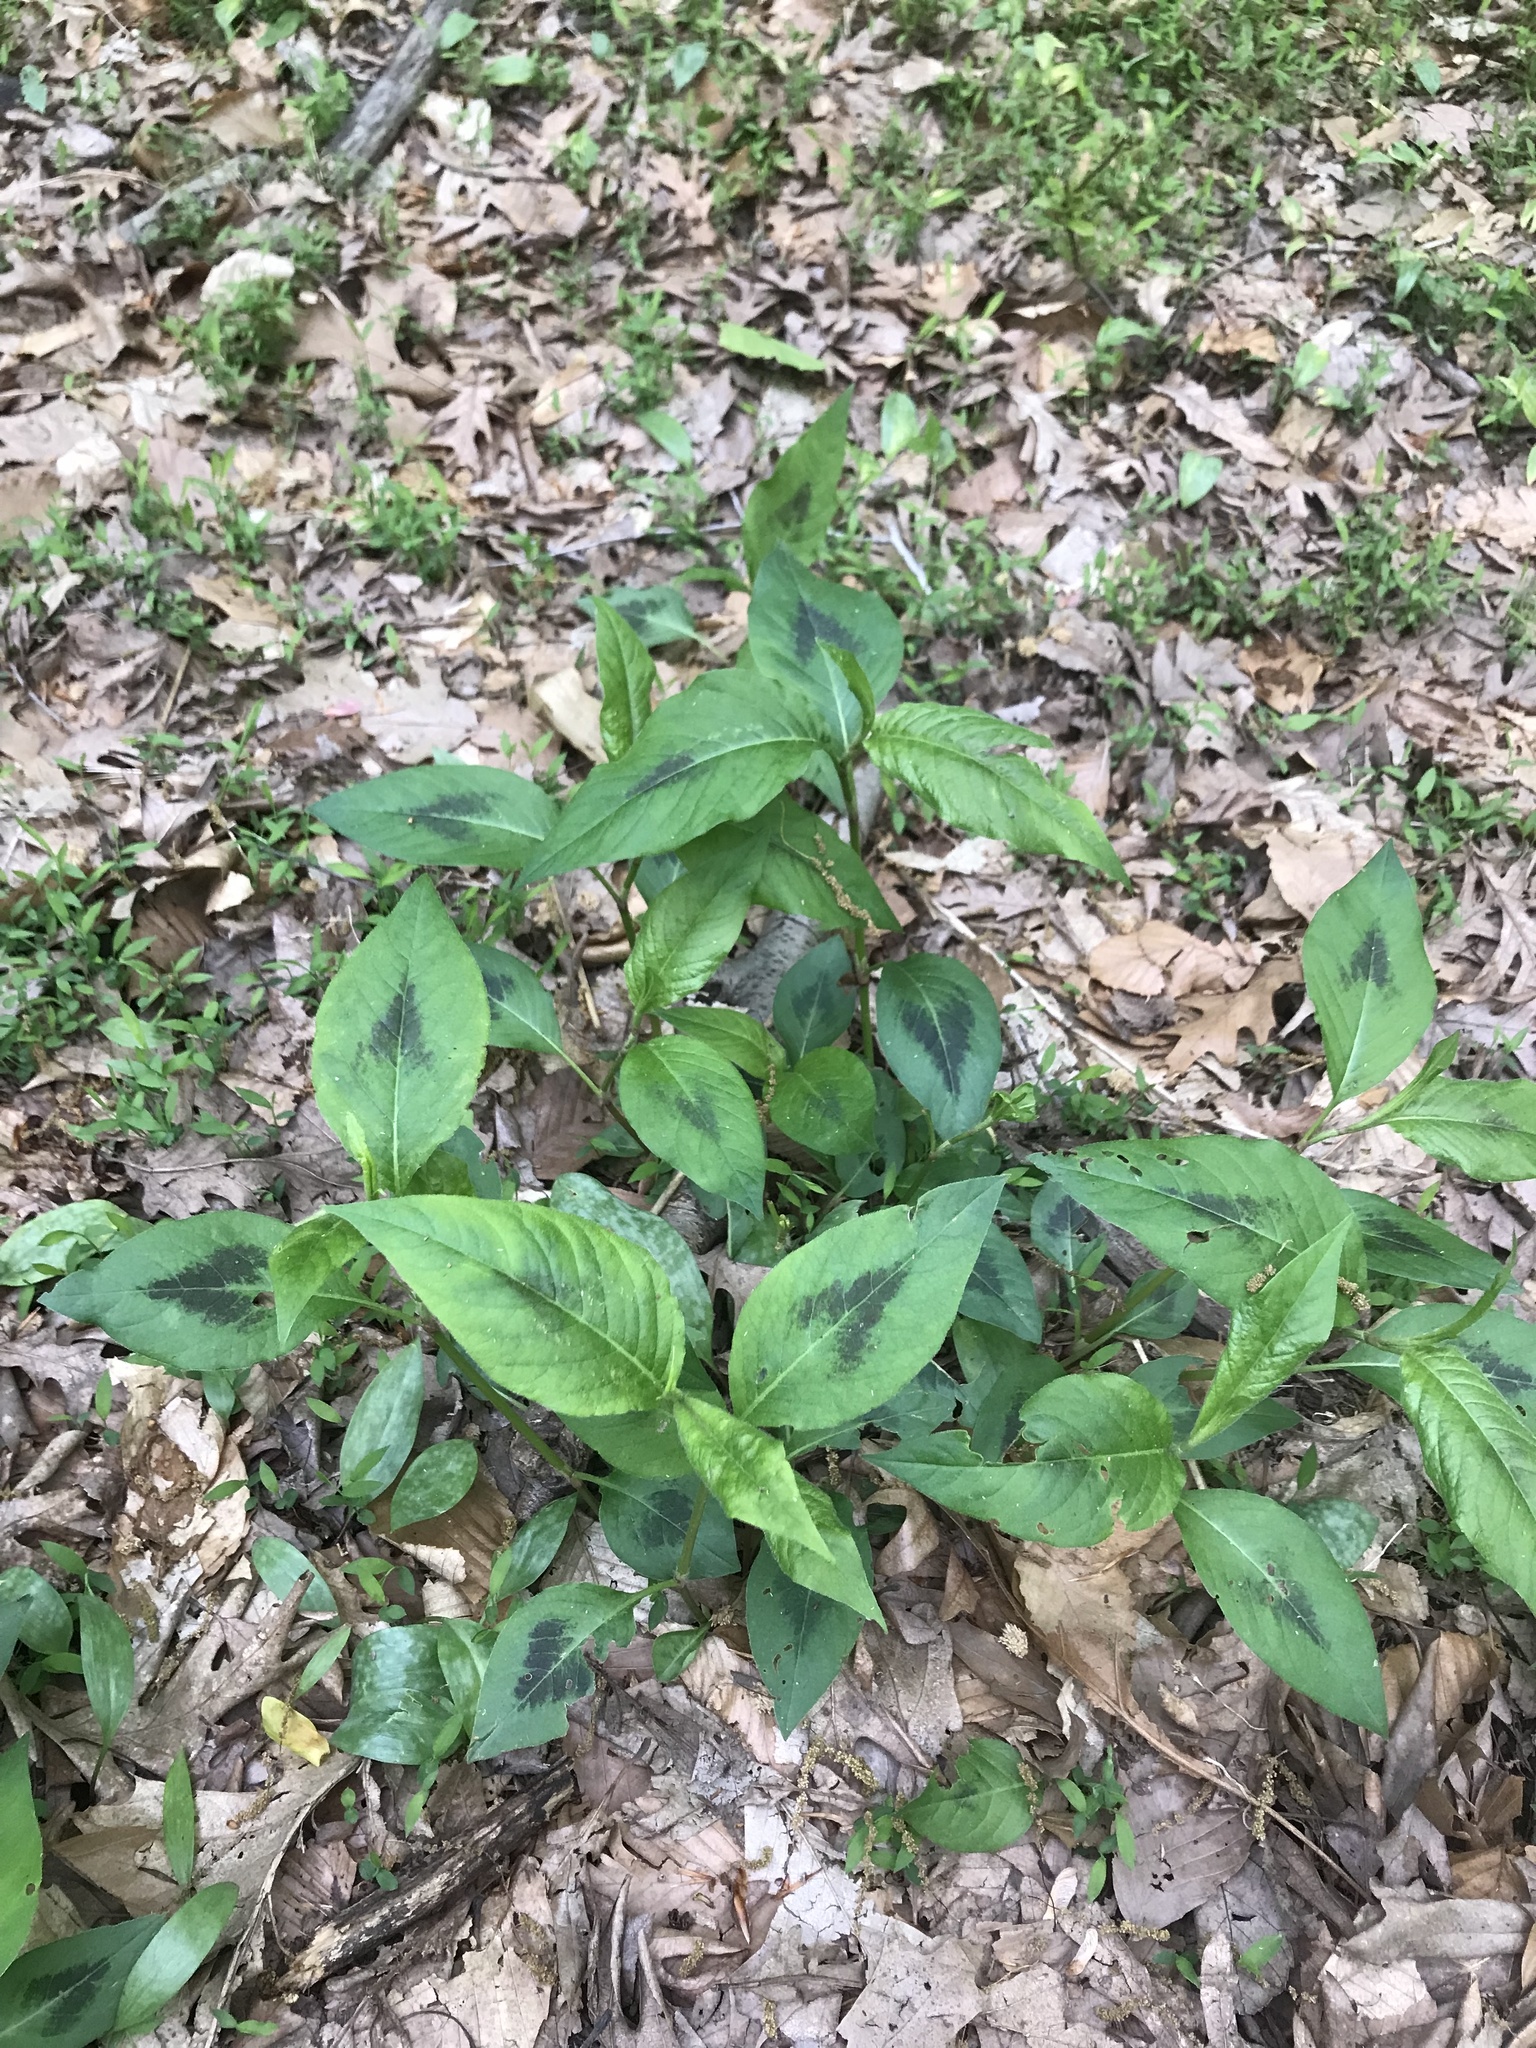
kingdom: Plantae
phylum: Tracheophyta
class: Magnoliopsida
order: Caryophyllales
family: Polygonaceae
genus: Persicaria
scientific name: Persicaria virginiana
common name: Jumpseed
